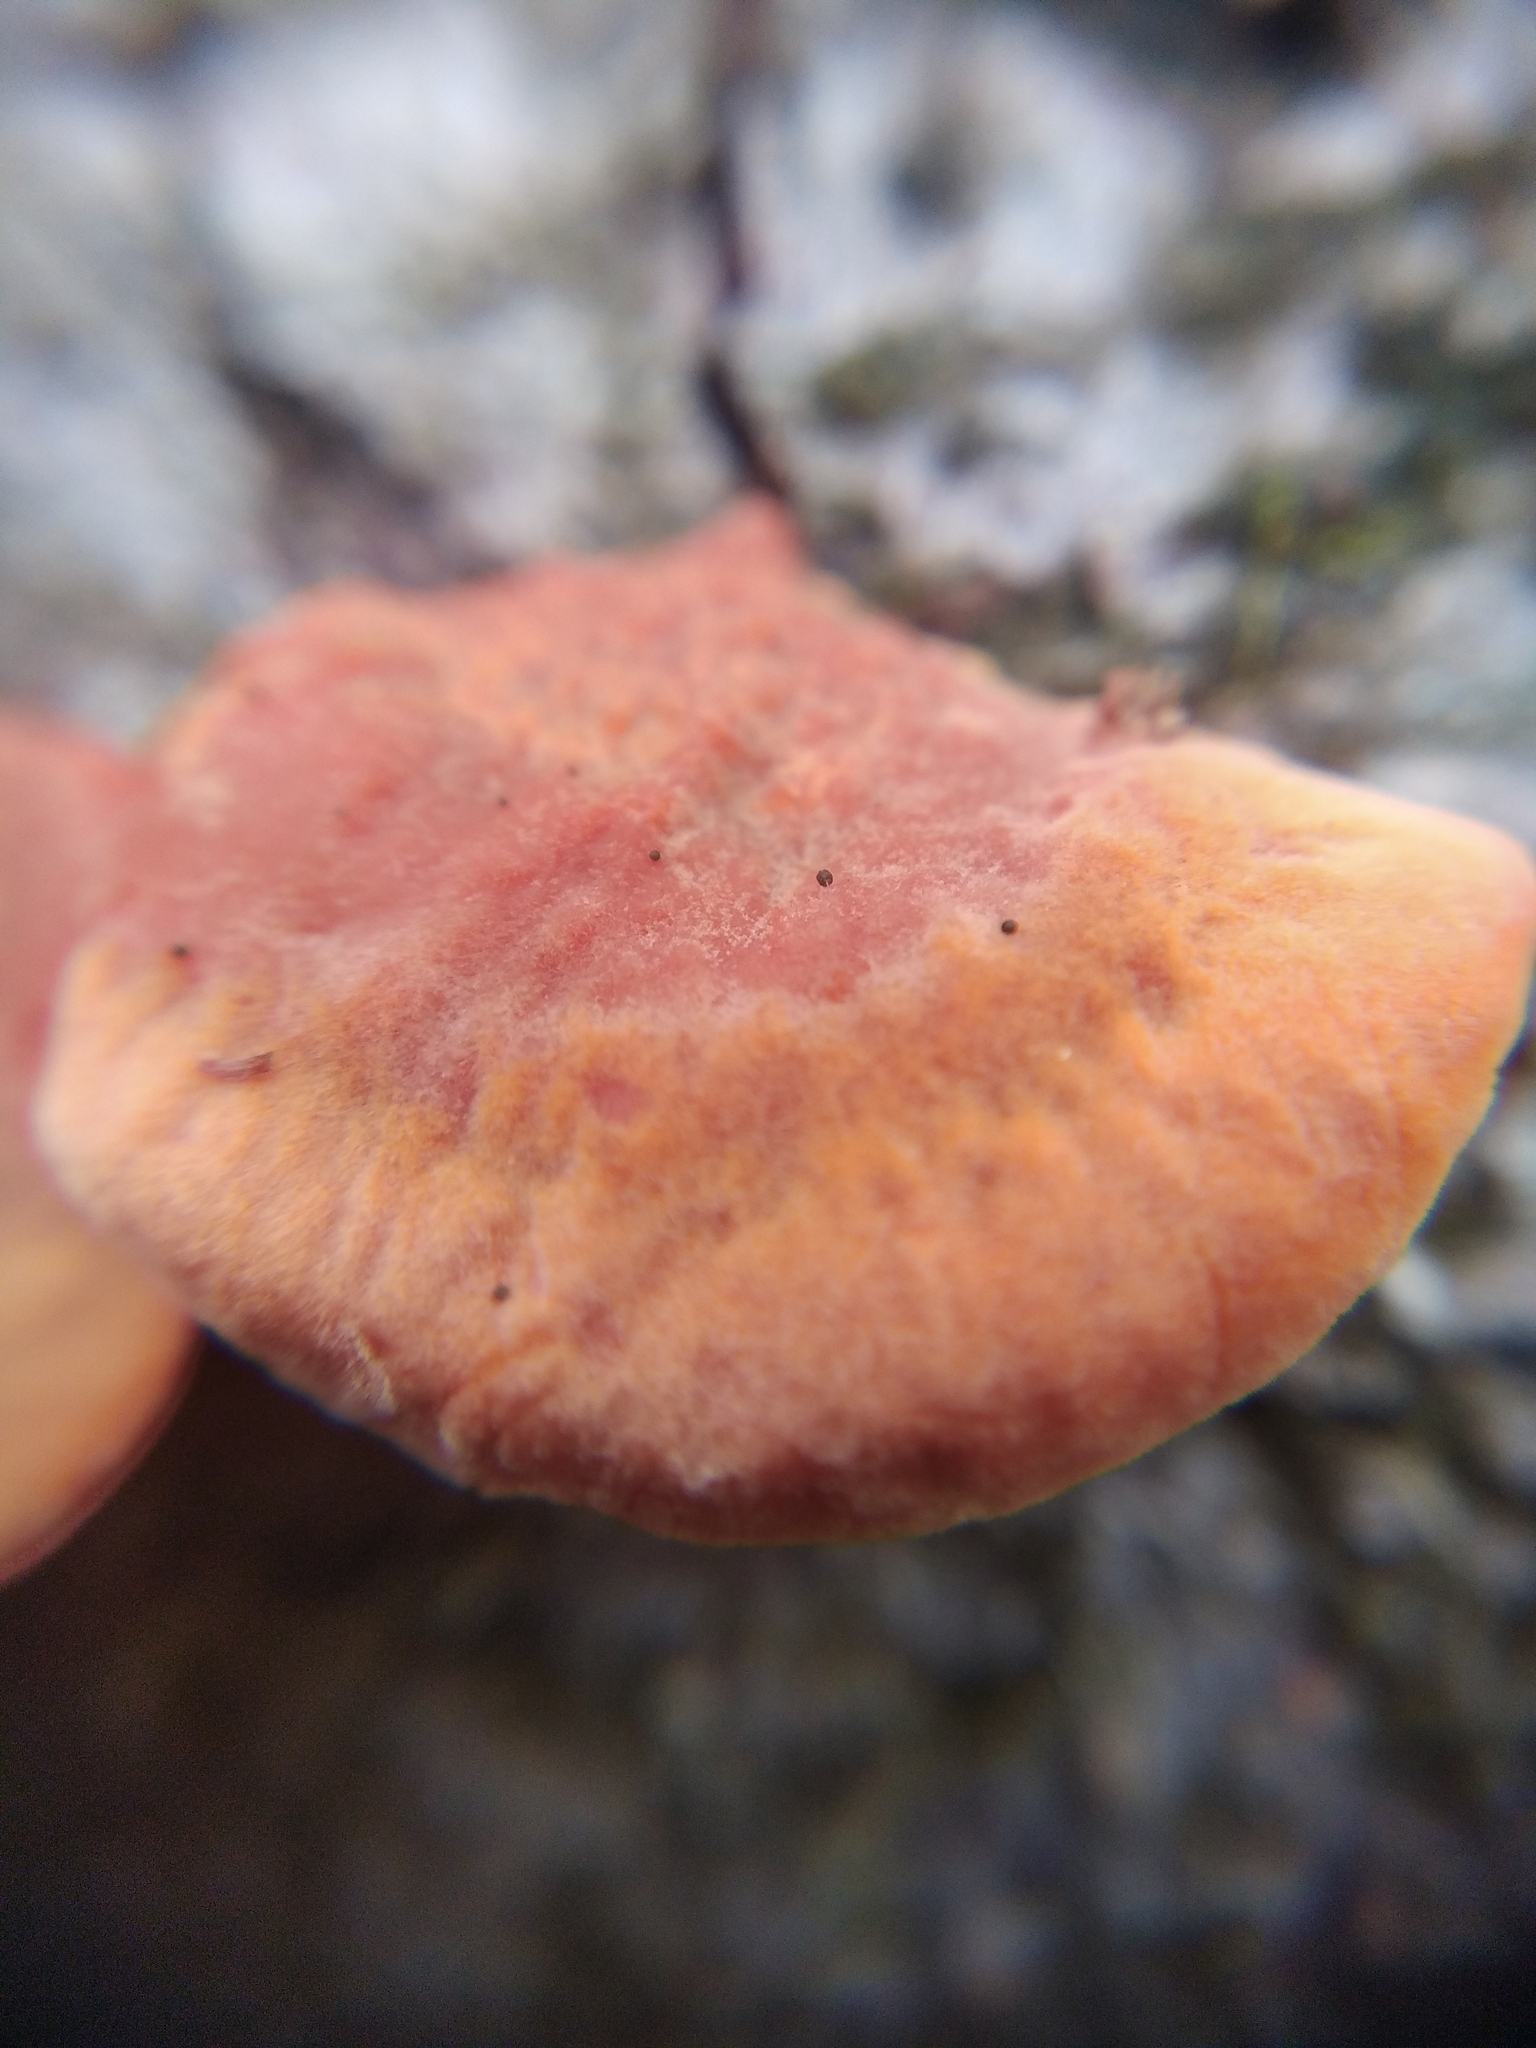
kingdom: Fungi
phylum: Basidiomycota
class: Agaricomycetes
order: Polyporales
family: Polyporaceae
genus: Trametes
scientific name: Trametes cinnabarina
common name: Northern cinnabar polypore
